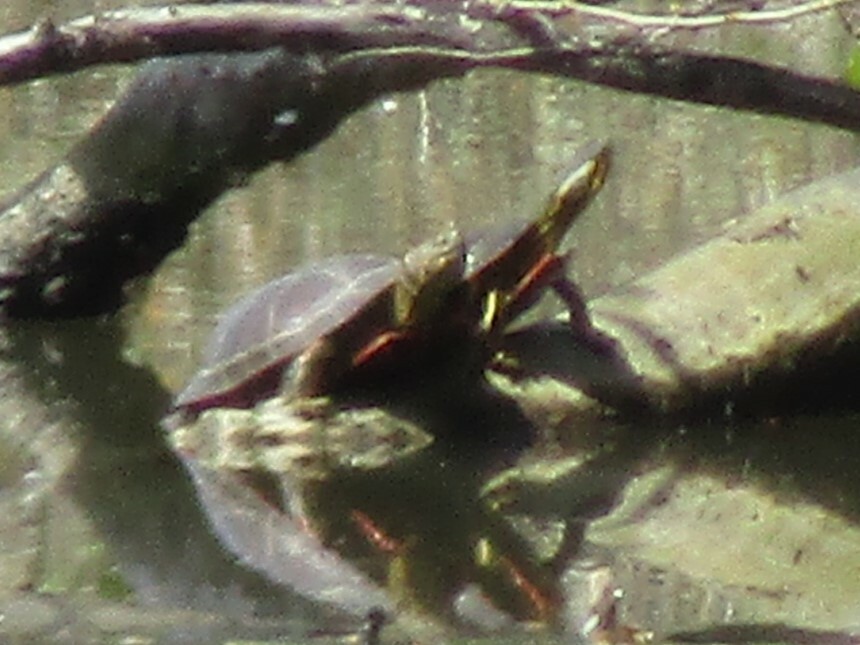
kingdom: Animalia
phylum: Chordata
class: Testudines
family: Emydidae
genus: Chrysemys
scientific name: Chrysemys picta
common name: Painted turtle
